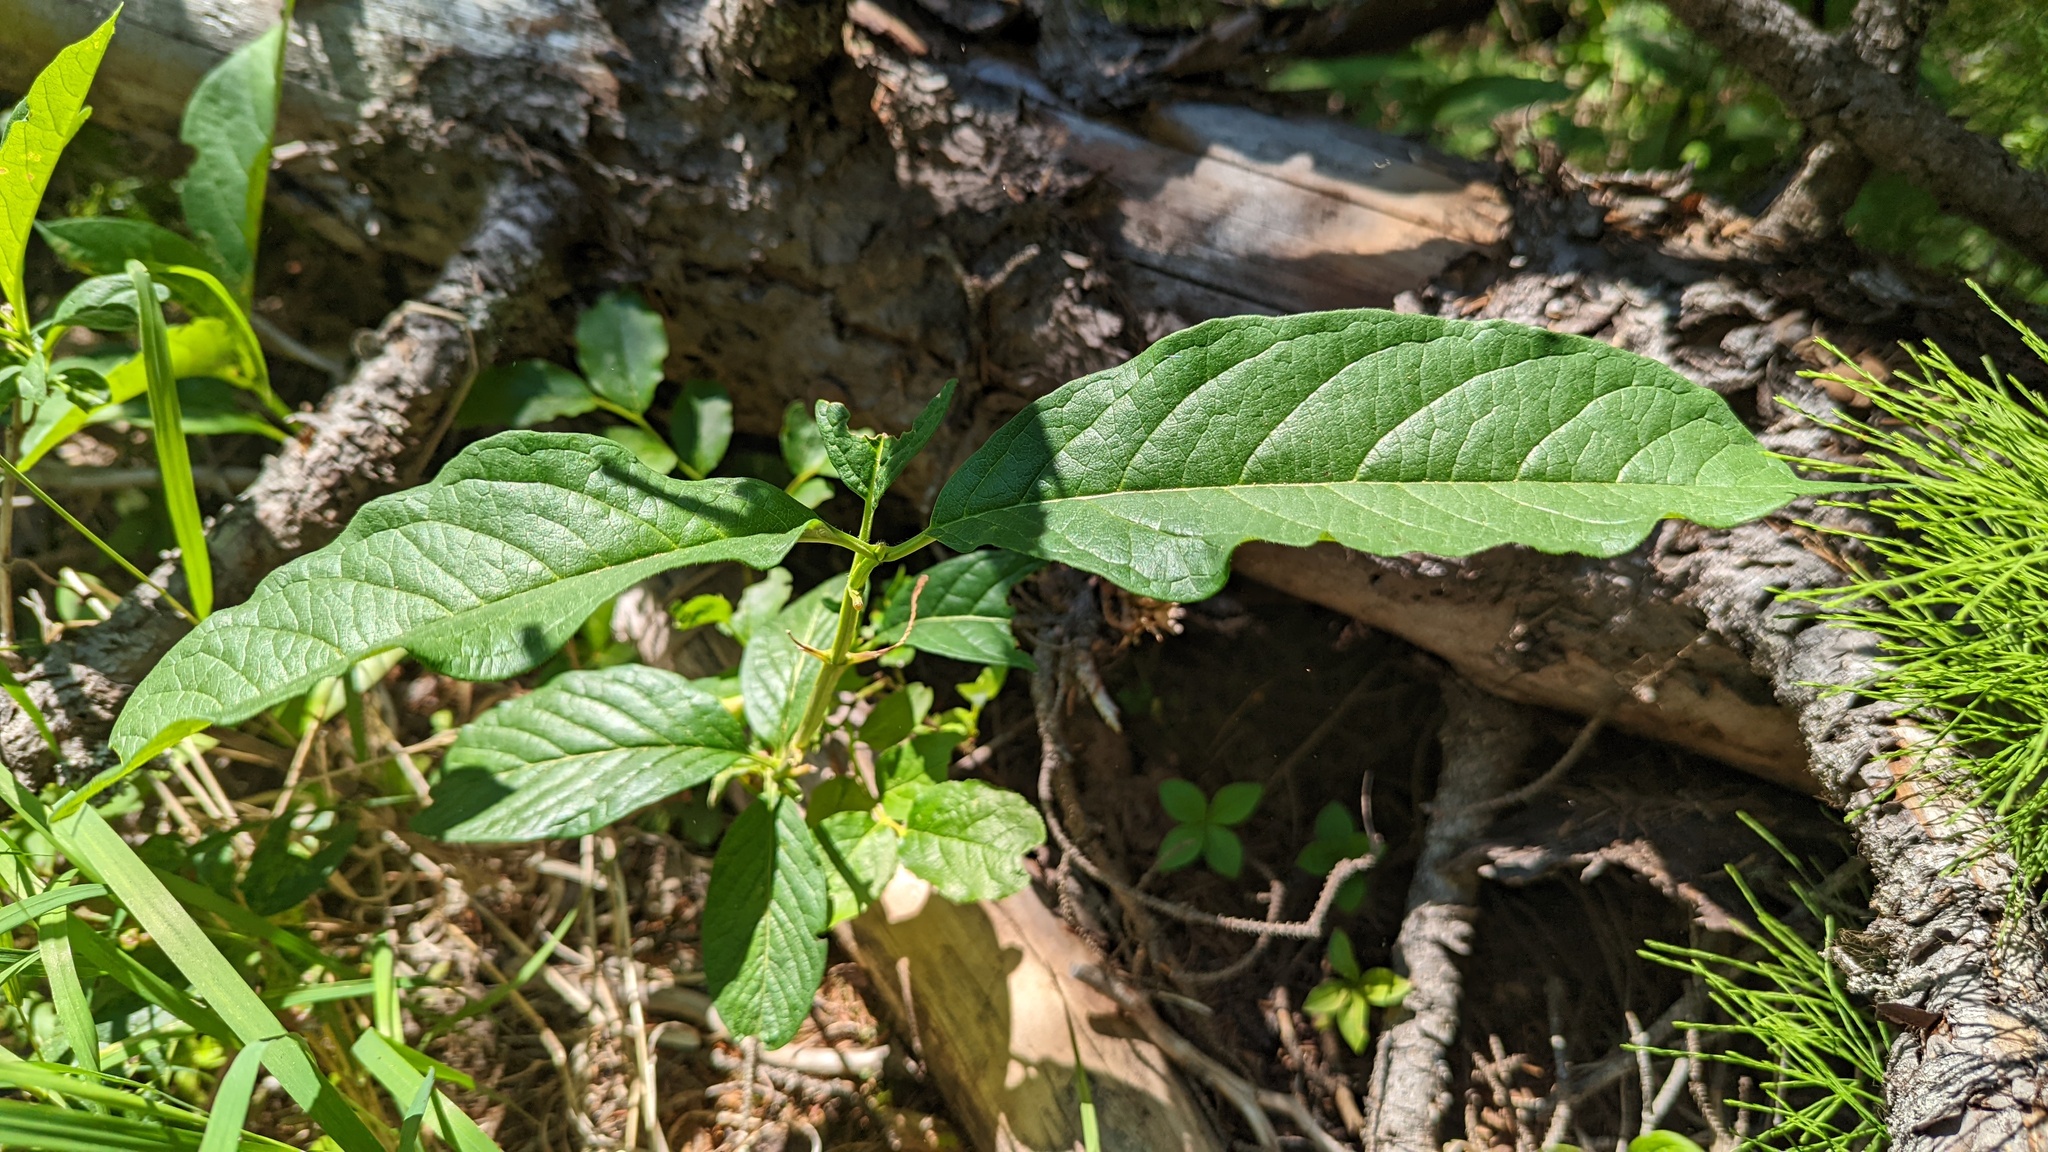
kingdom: Plantae
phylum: Tracheophyta
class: Magnoliopsida
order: Dipsacales
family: Caprifoliaceae
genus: Lonicera
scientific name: Lonicera involucrata
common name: Californian honeysuckle
